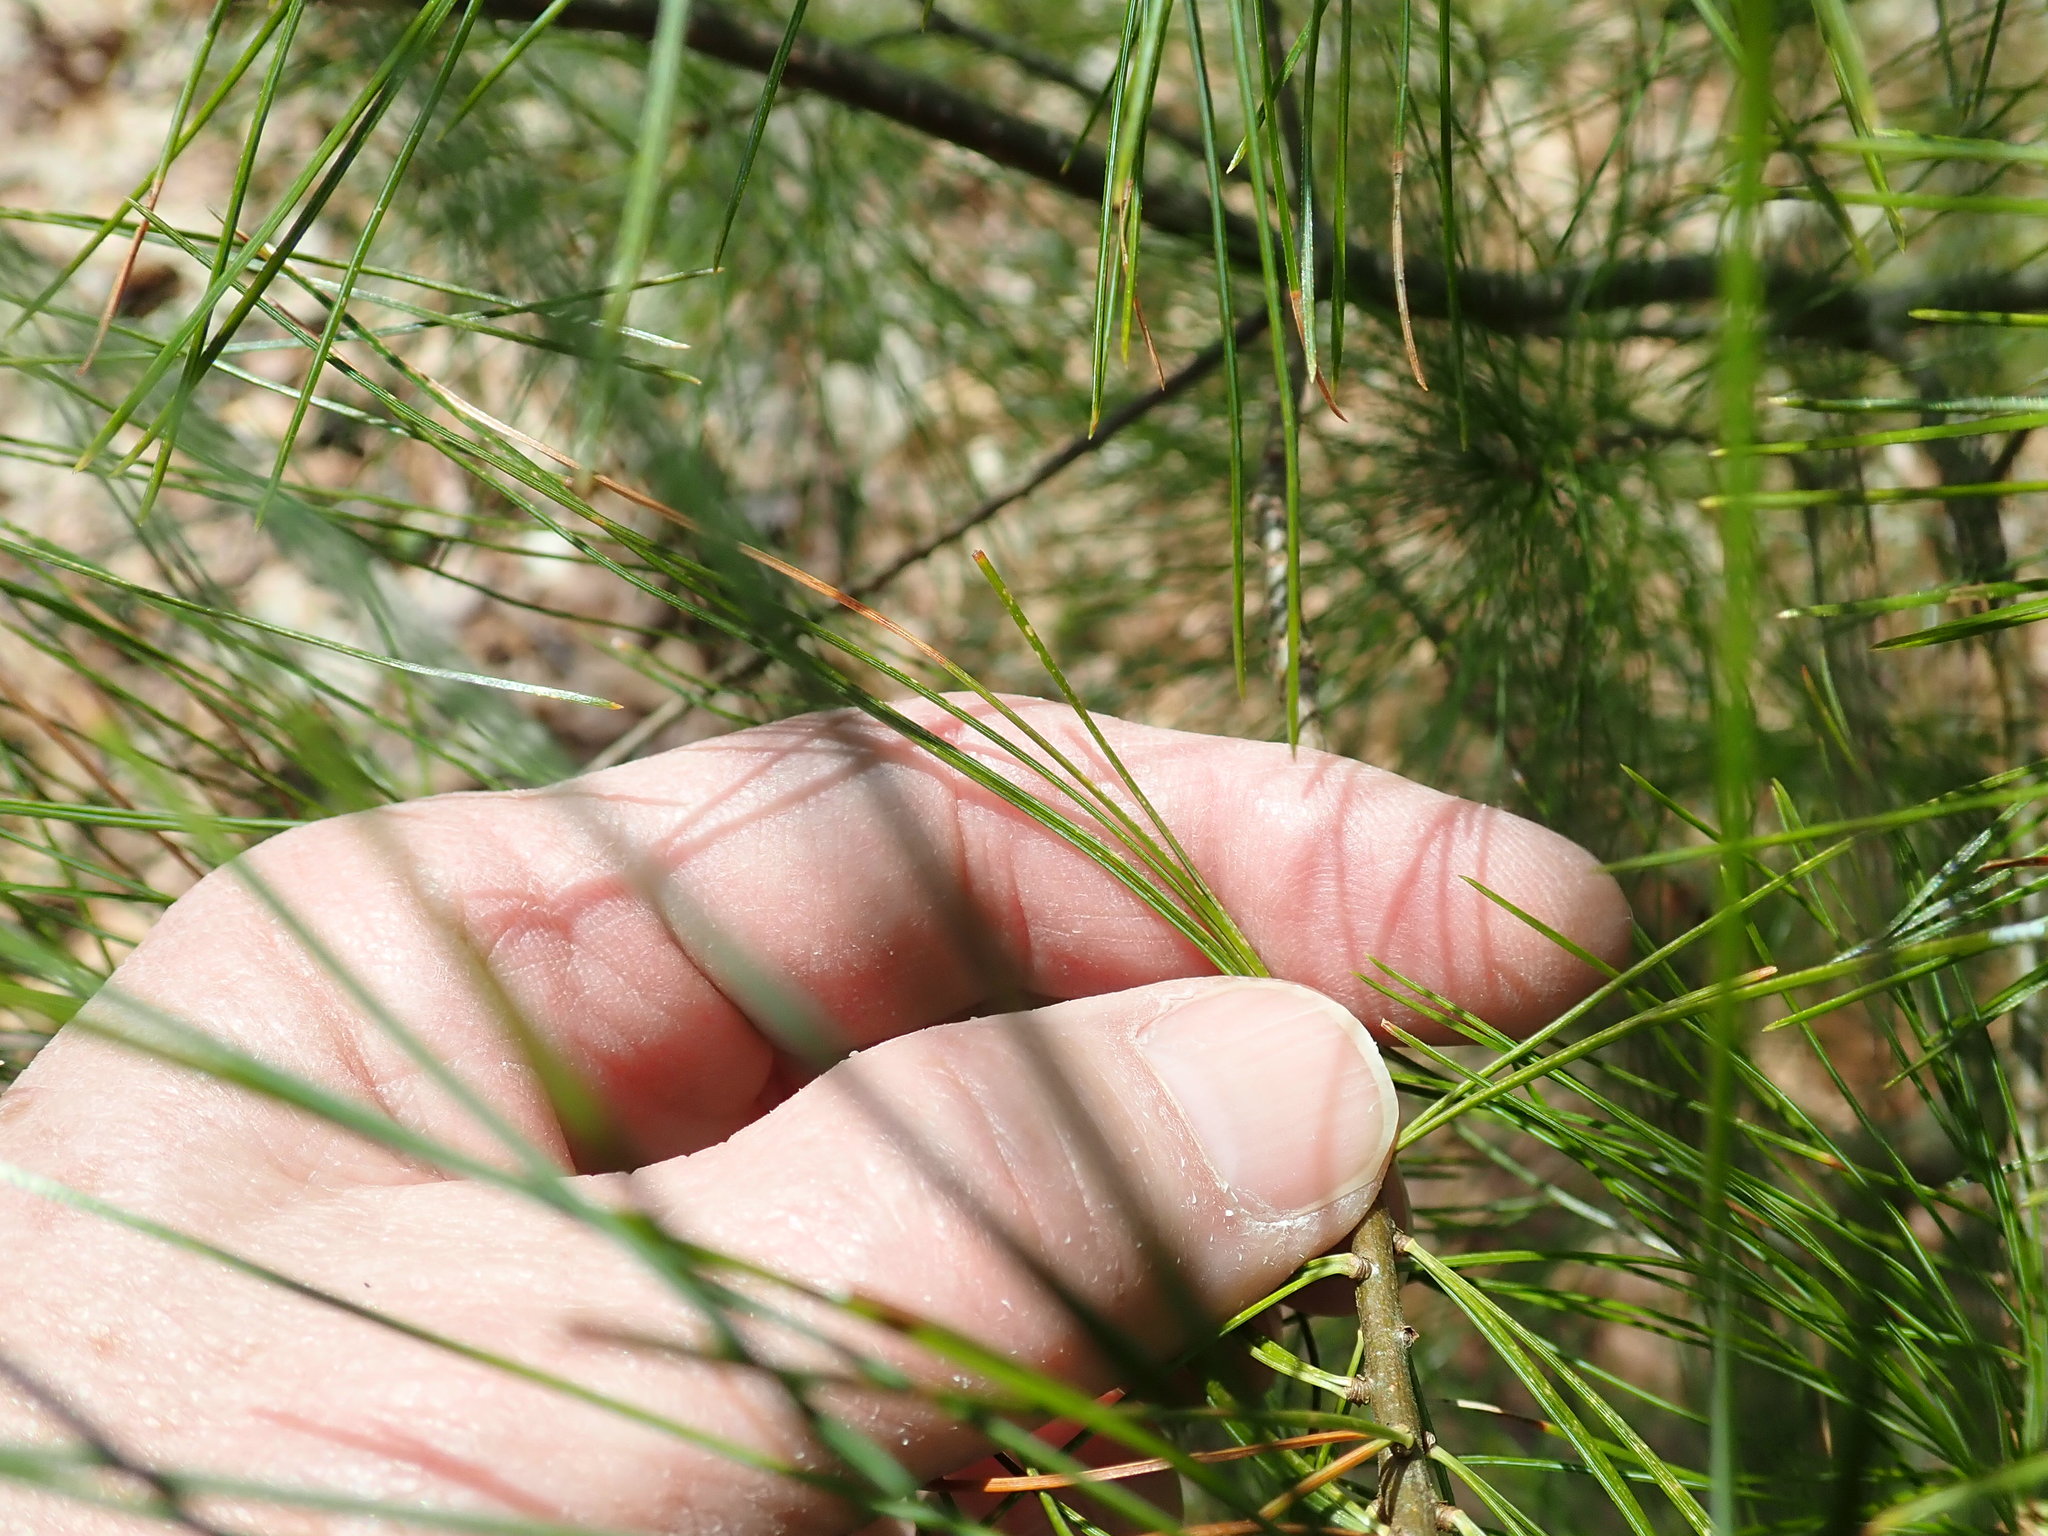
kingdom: Plantae
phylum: Tracheophyta
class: Pinopsida
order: Pinales
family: Pinaceae
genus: Pinus
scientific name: Pinus strobus
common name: Weymouth pine
